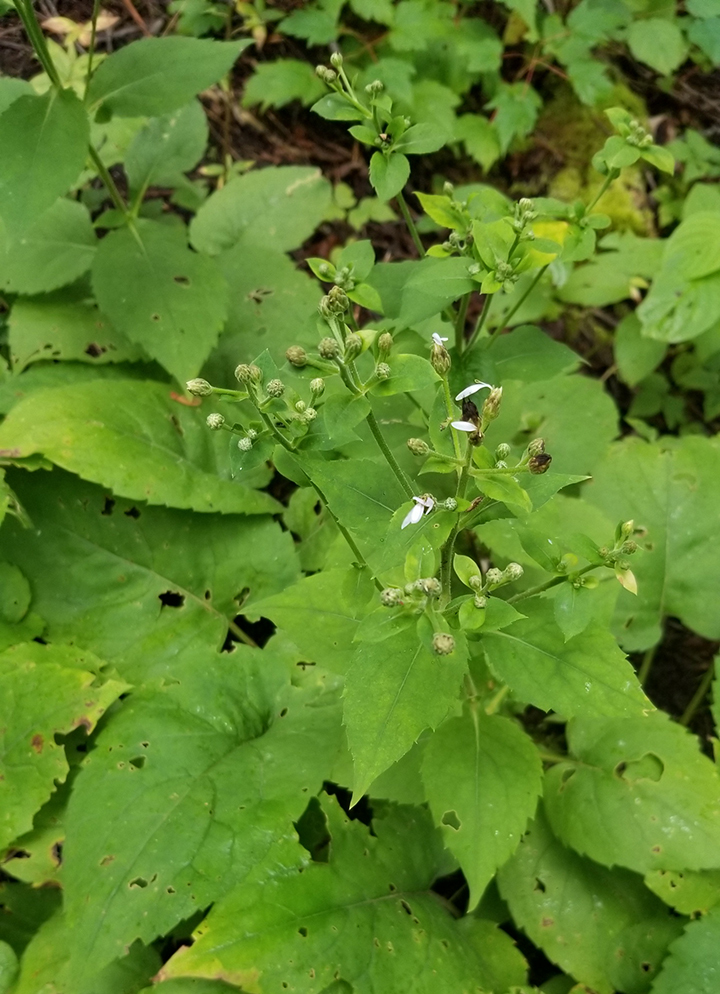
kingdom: Plantae
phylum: Tracheophyta
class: Magnoliopsida
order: Asterales
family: Asteraceae
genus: Eurybia
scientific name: Eurybia macrophylla
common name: Big-leaved aster
